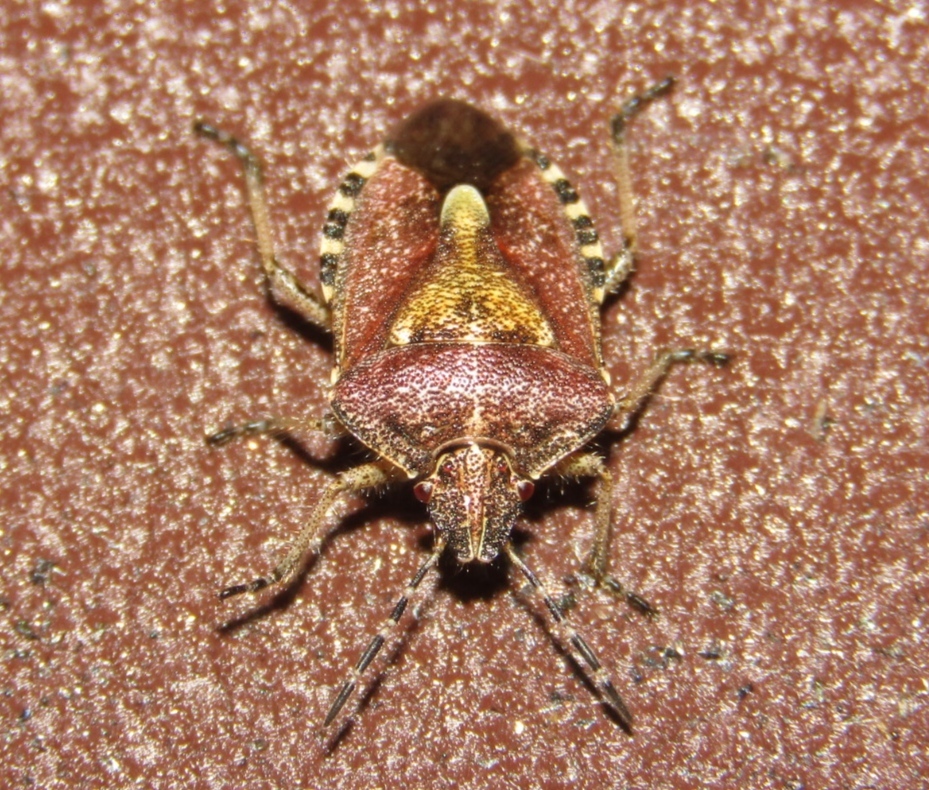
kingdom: Animalia
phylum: Arthropoda
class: Insecta
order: Hemiptera
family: Pentatomidae
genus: Dolycoris
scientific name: Dolycoris baccarum
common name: Sloe bug
